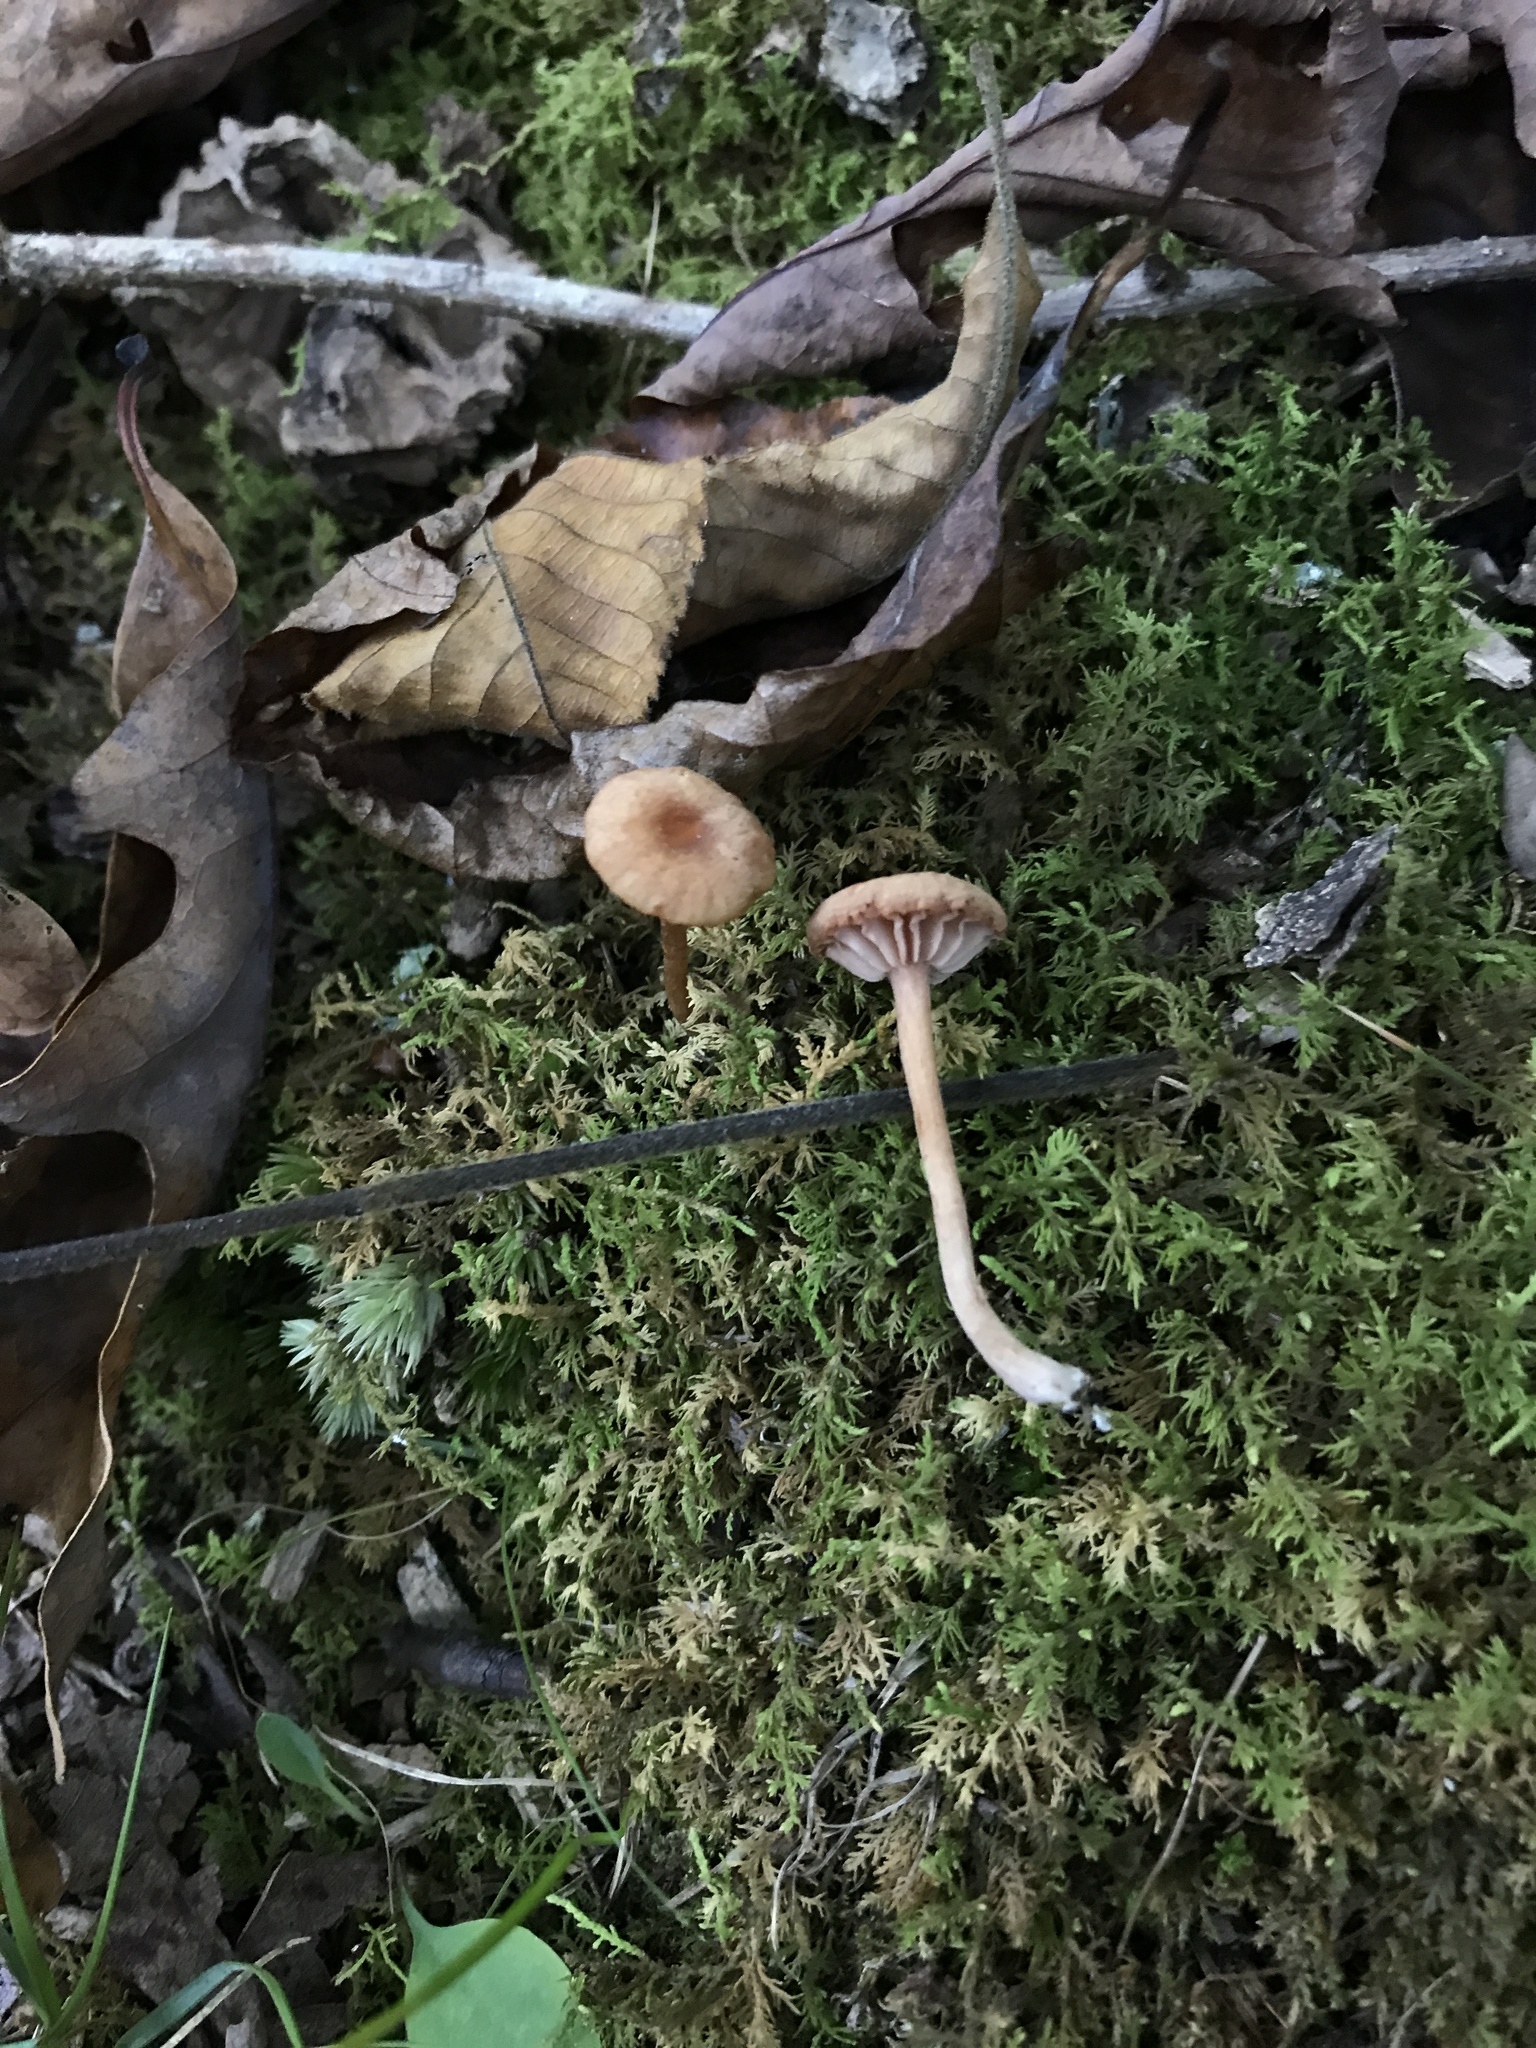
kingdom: Fungi
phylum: Basidiomycota
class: Agaricomycetes
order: Agaricales
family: Hydnangiaceae
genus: Laccaria
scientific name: Laccaria laccata
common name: Deceiver
